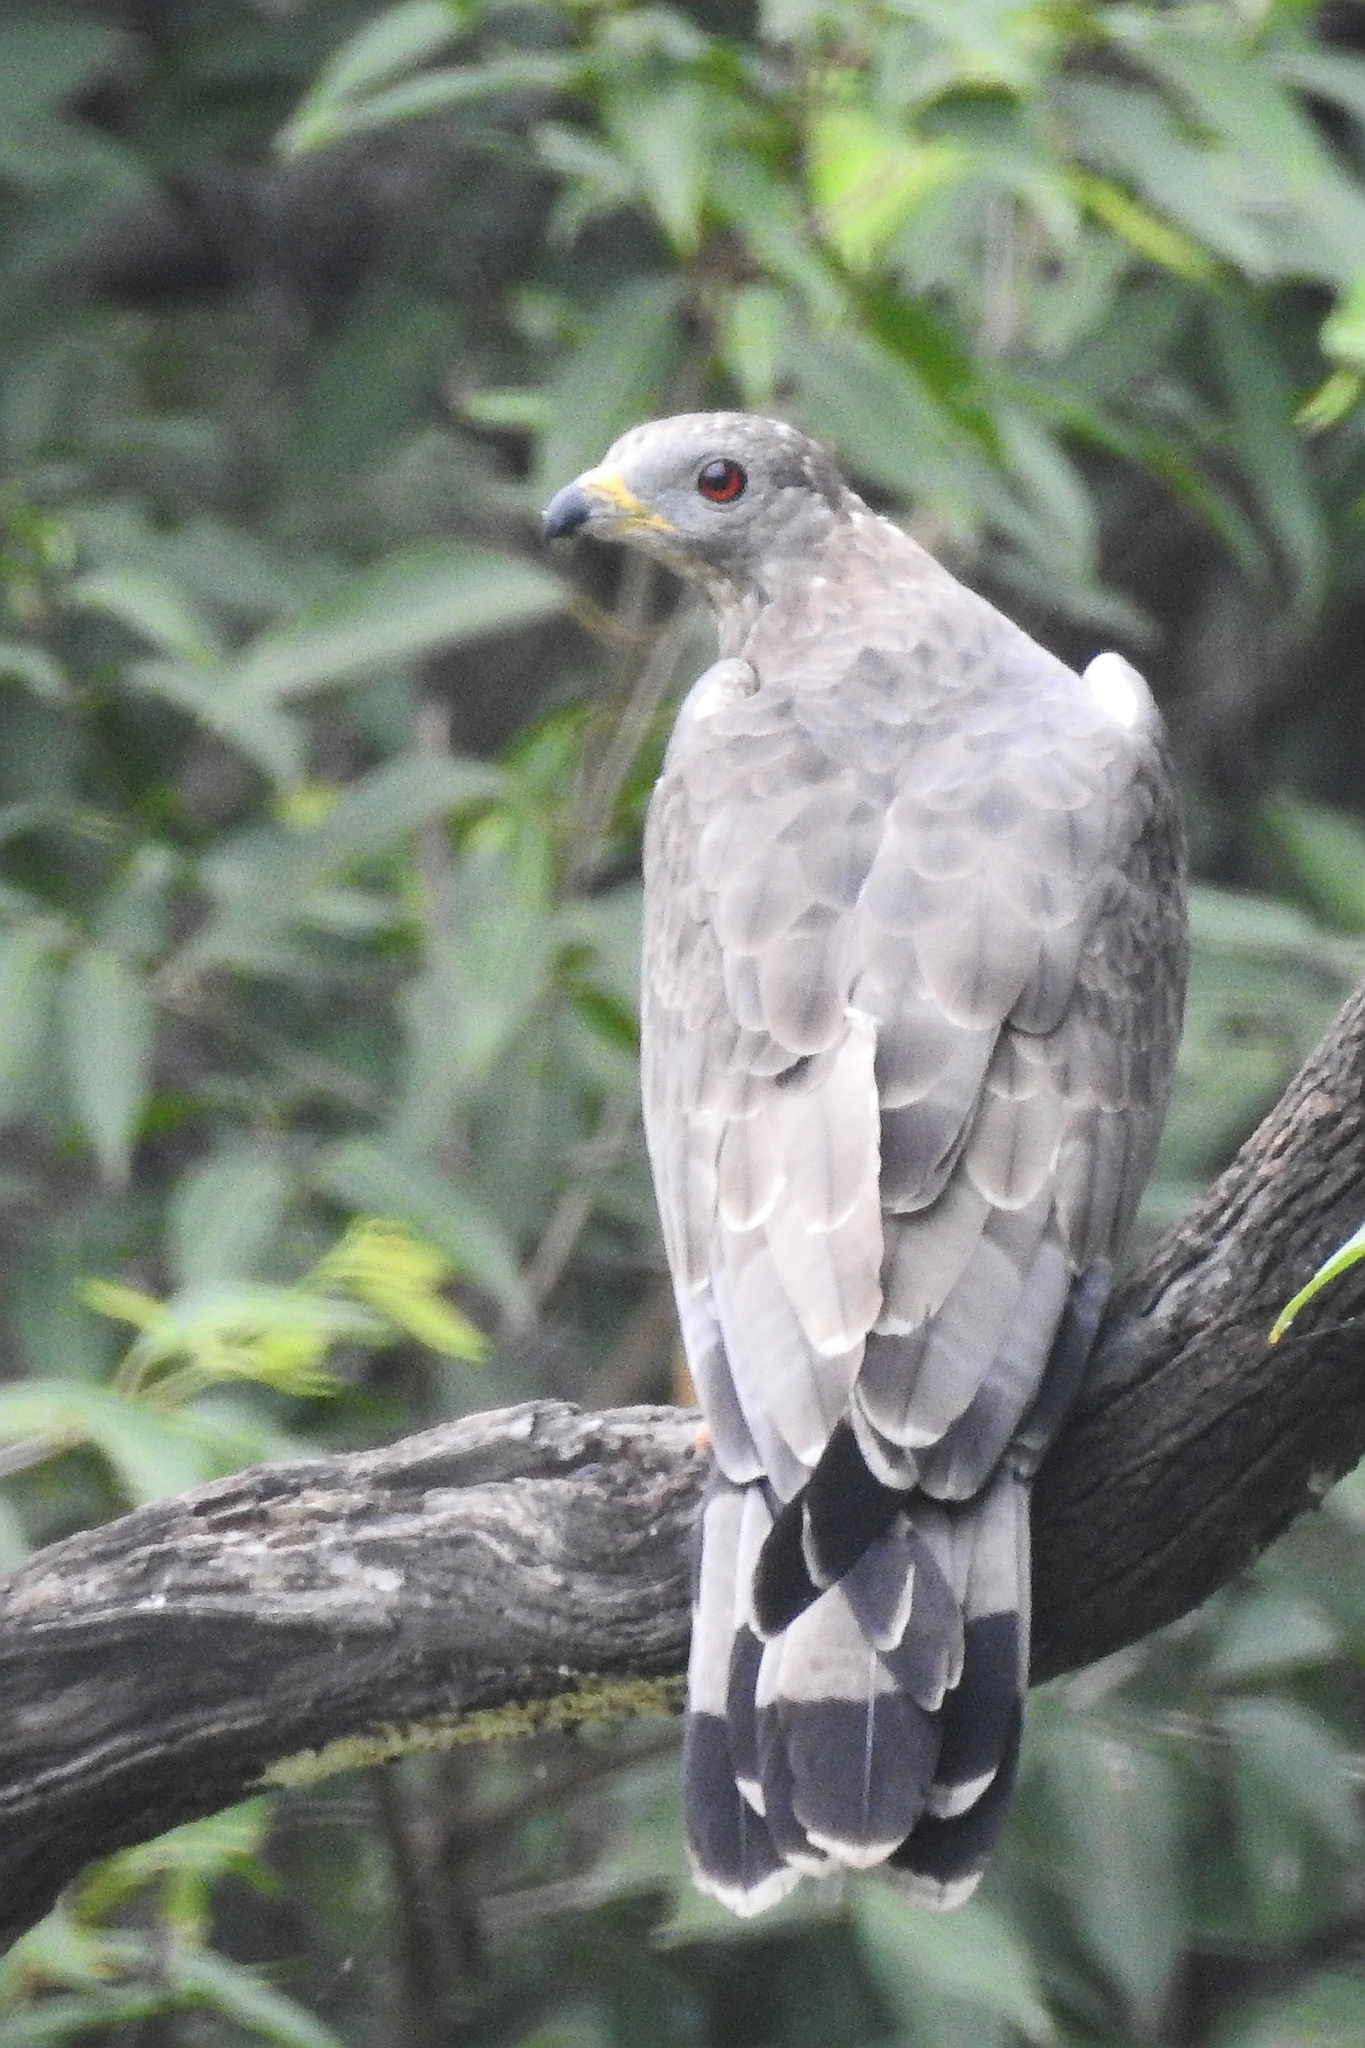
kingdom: Animalia
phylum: Chordata
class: Aves
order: Accipitriformes
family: Accipitridae
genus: Pernis
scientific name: Pernis ptilorhynchus
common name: Crested honey buzzard
